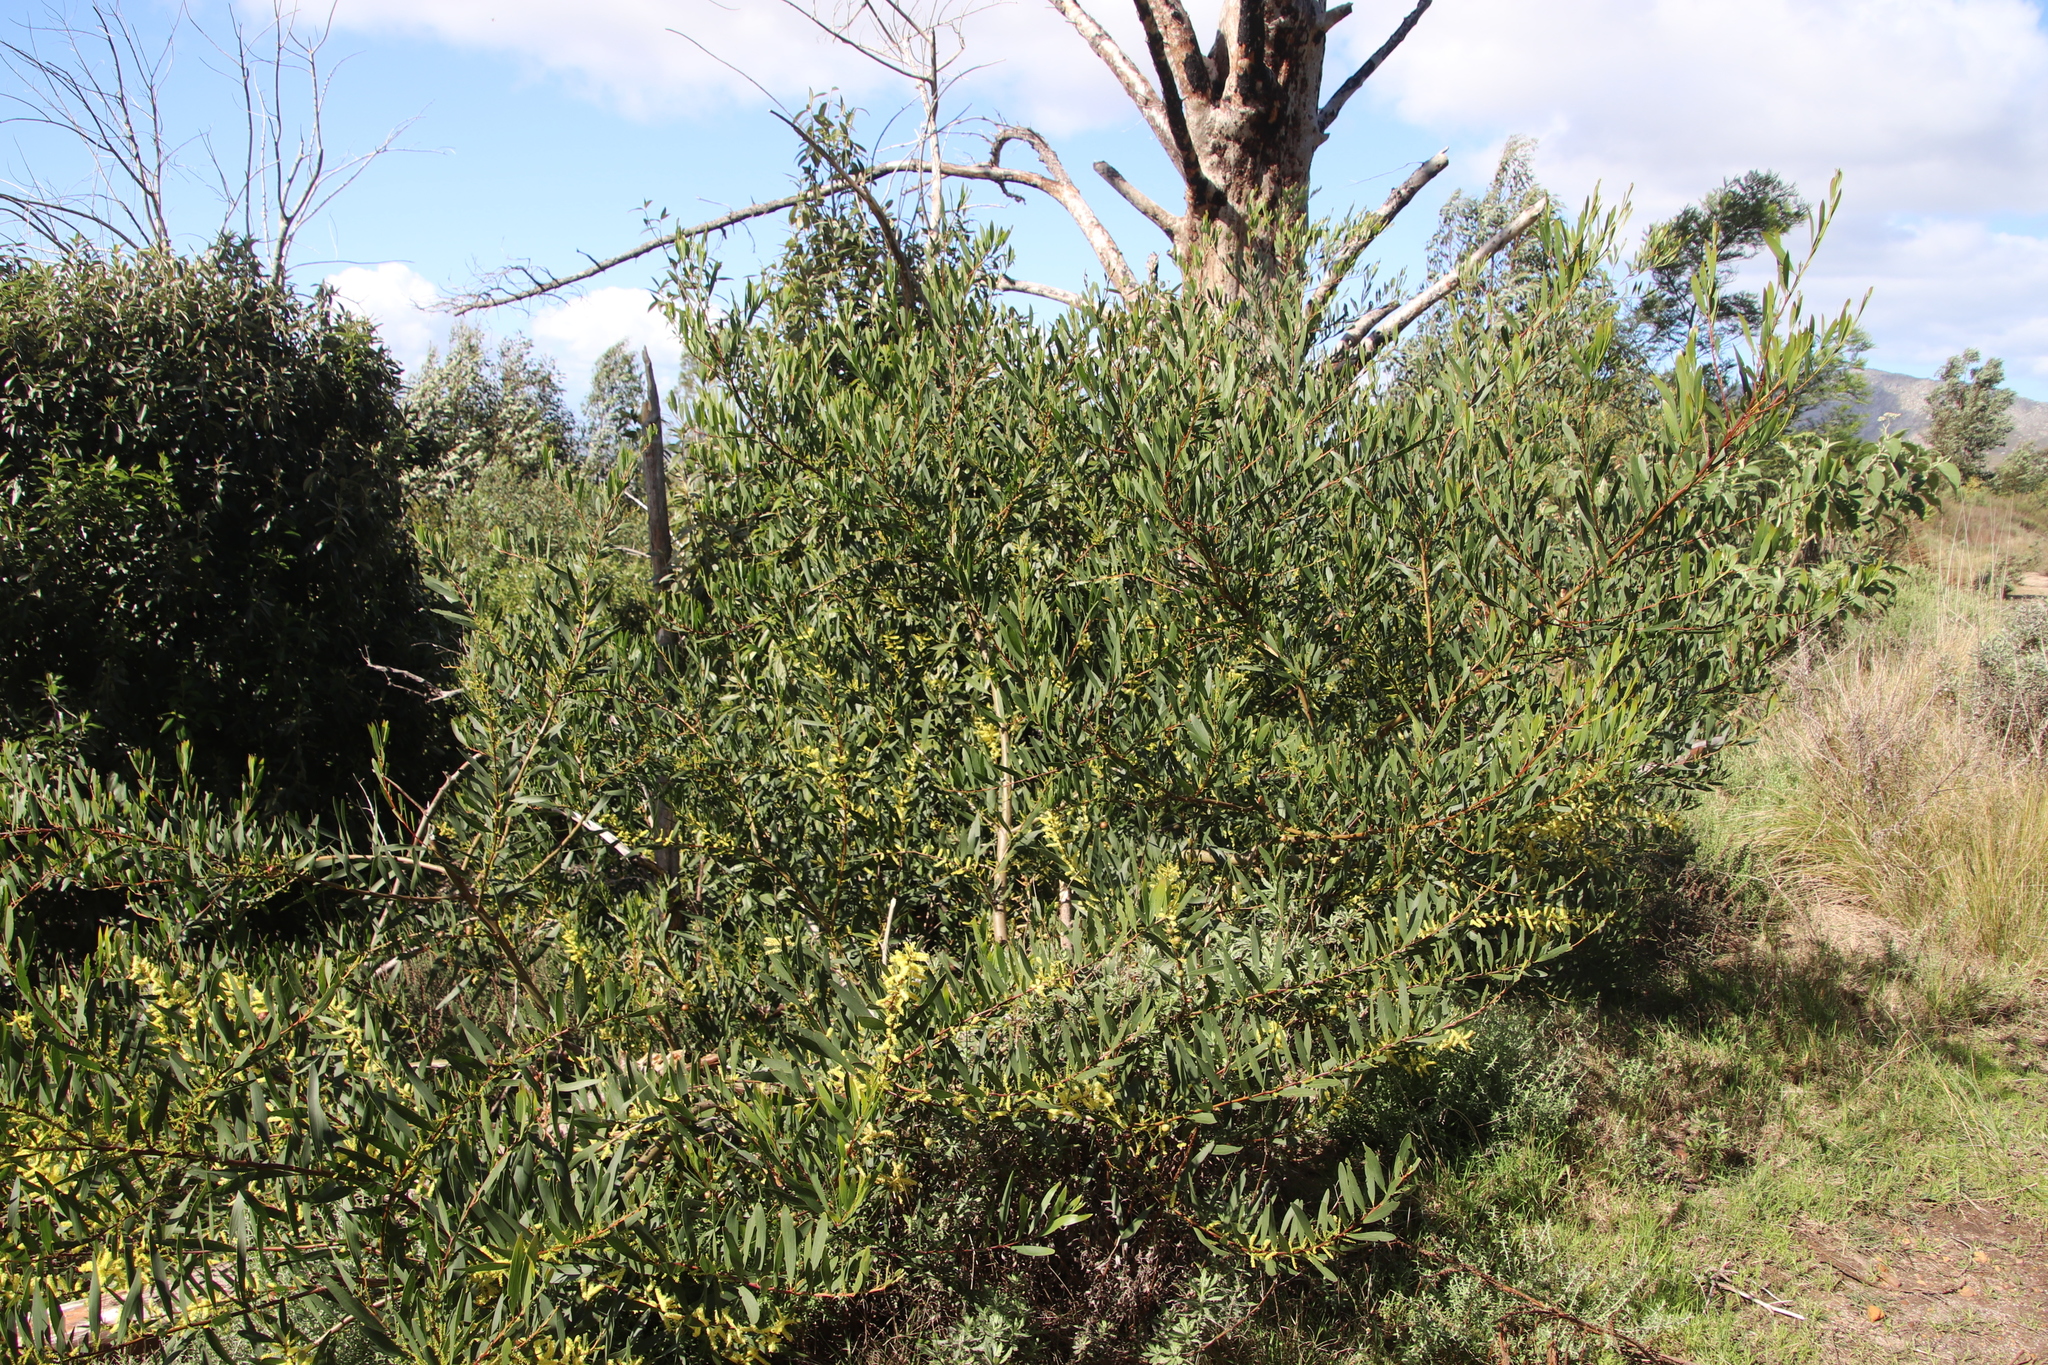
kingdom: Plantae
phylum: Tracheophyta
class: Magnoliopsida
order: Fabales
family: Fabaceae
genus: Acacia
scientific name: Acacia longifolia
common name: Sydney golden wattle
